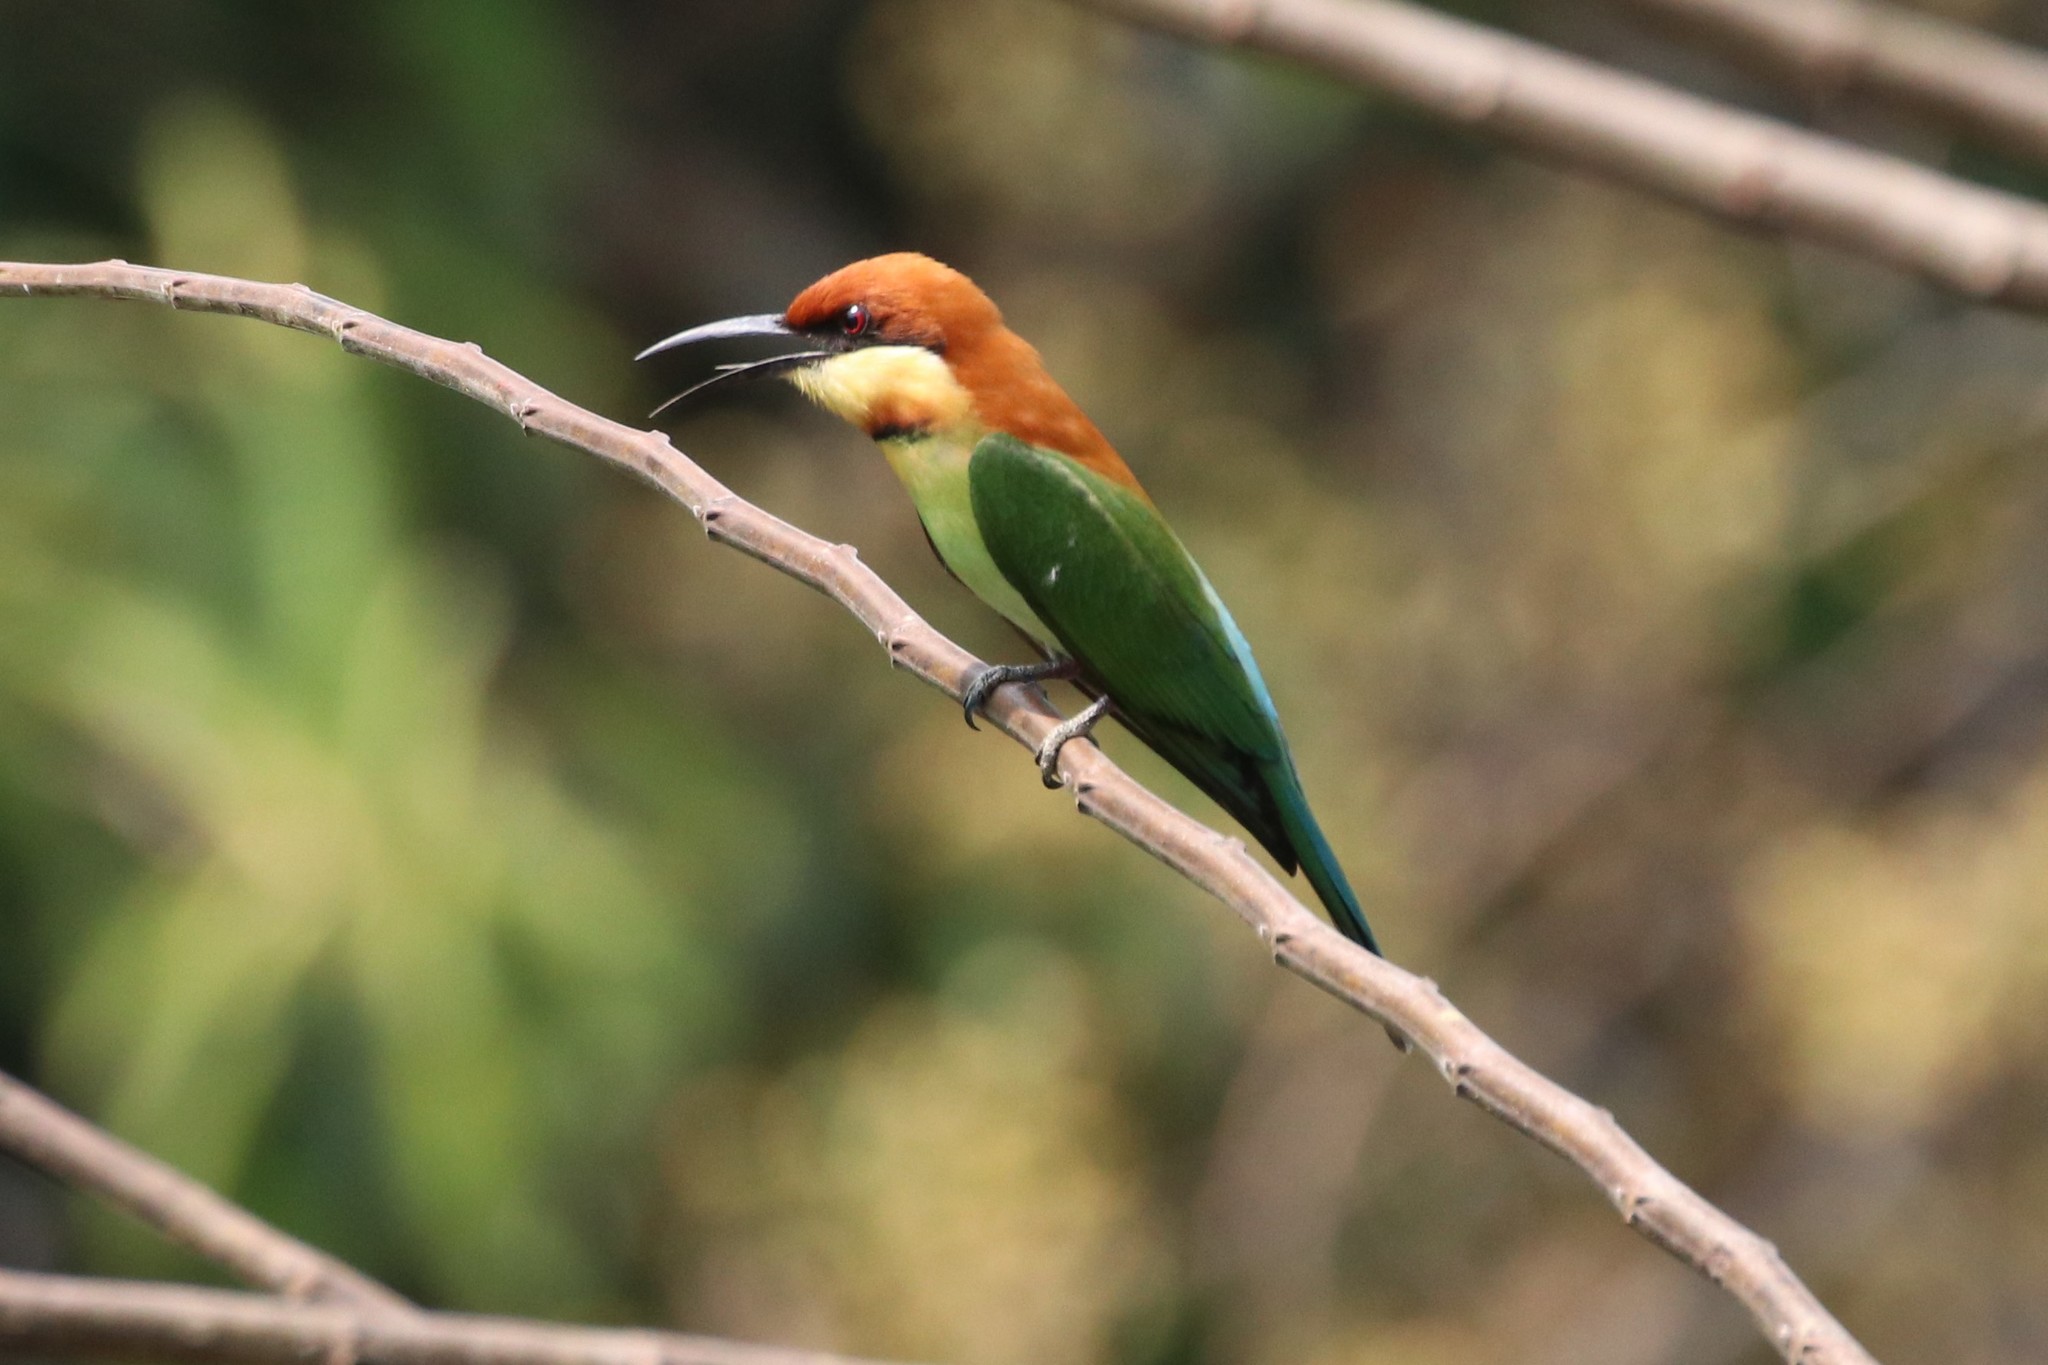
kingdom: Animalia
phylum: Chordata
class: Aves
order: Coraciiformes
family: Meropidae
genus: Merops
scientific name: Merops leschenaulti
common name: Chestnut-headed bee-eater
